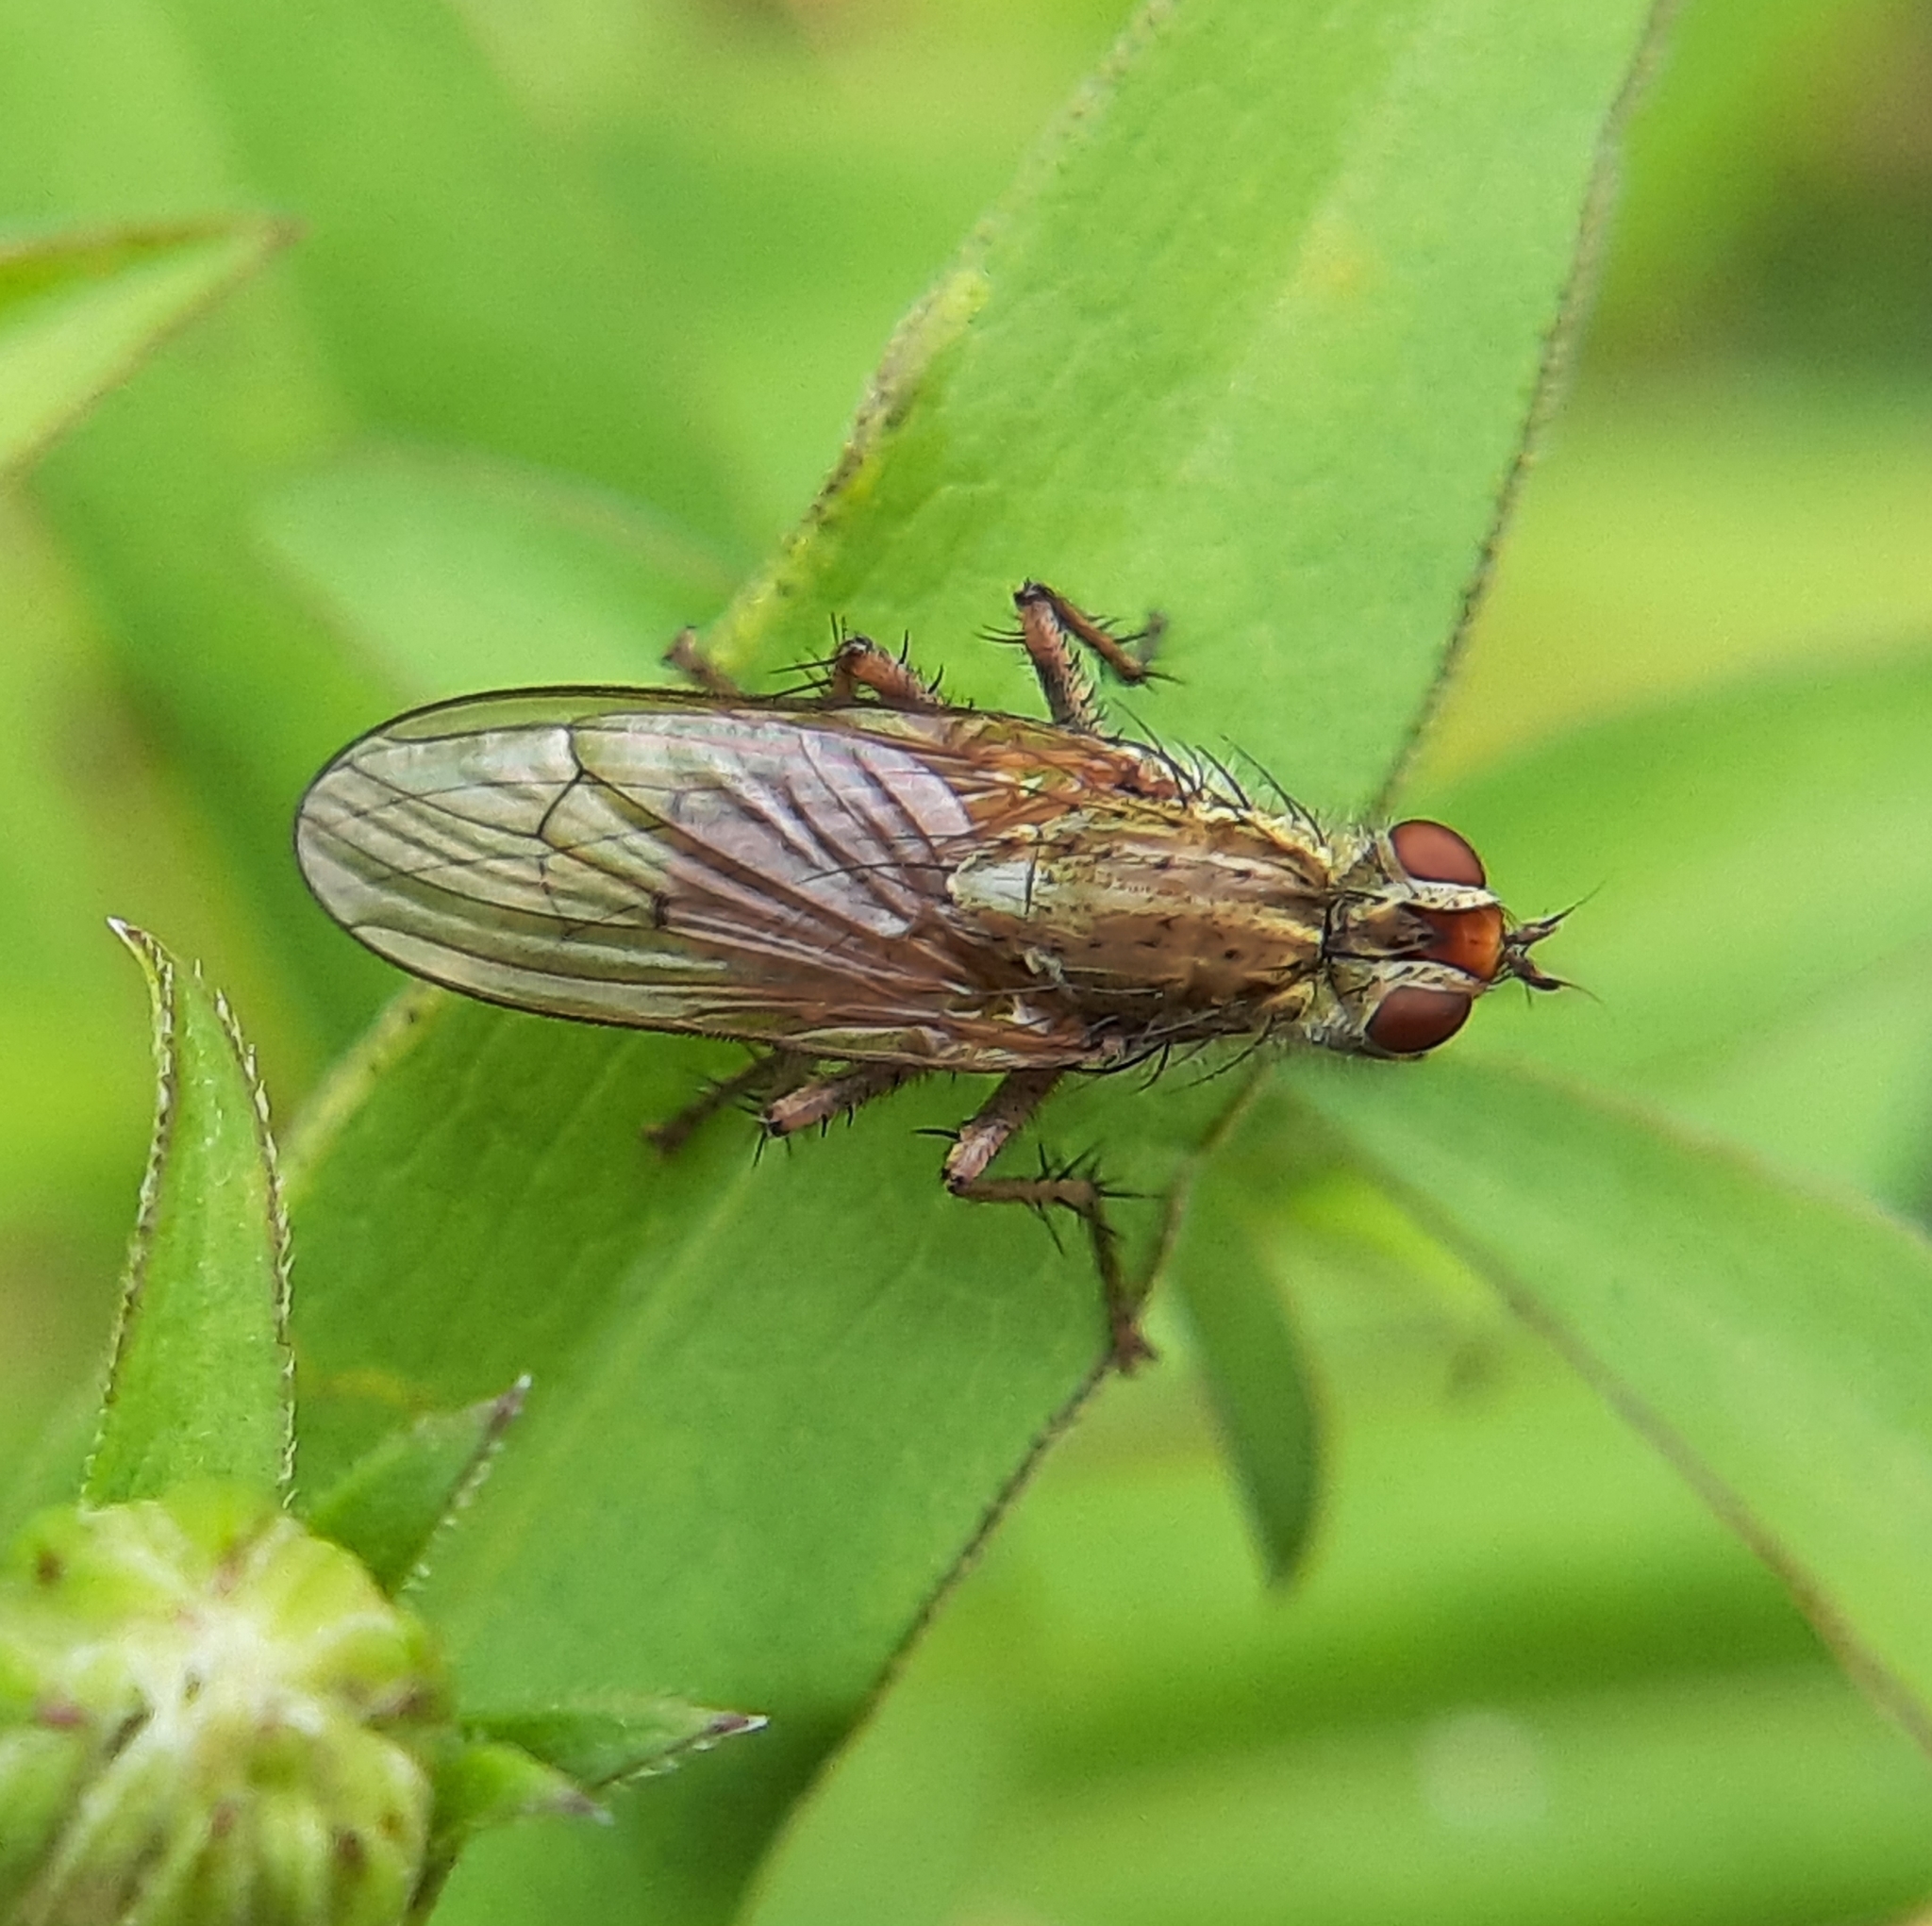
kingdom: Animalia
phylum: Arthropoda
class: Insecta
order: Diptera
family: Scathophagidae
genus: Scathophaga
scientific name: Scathophaga furcata
